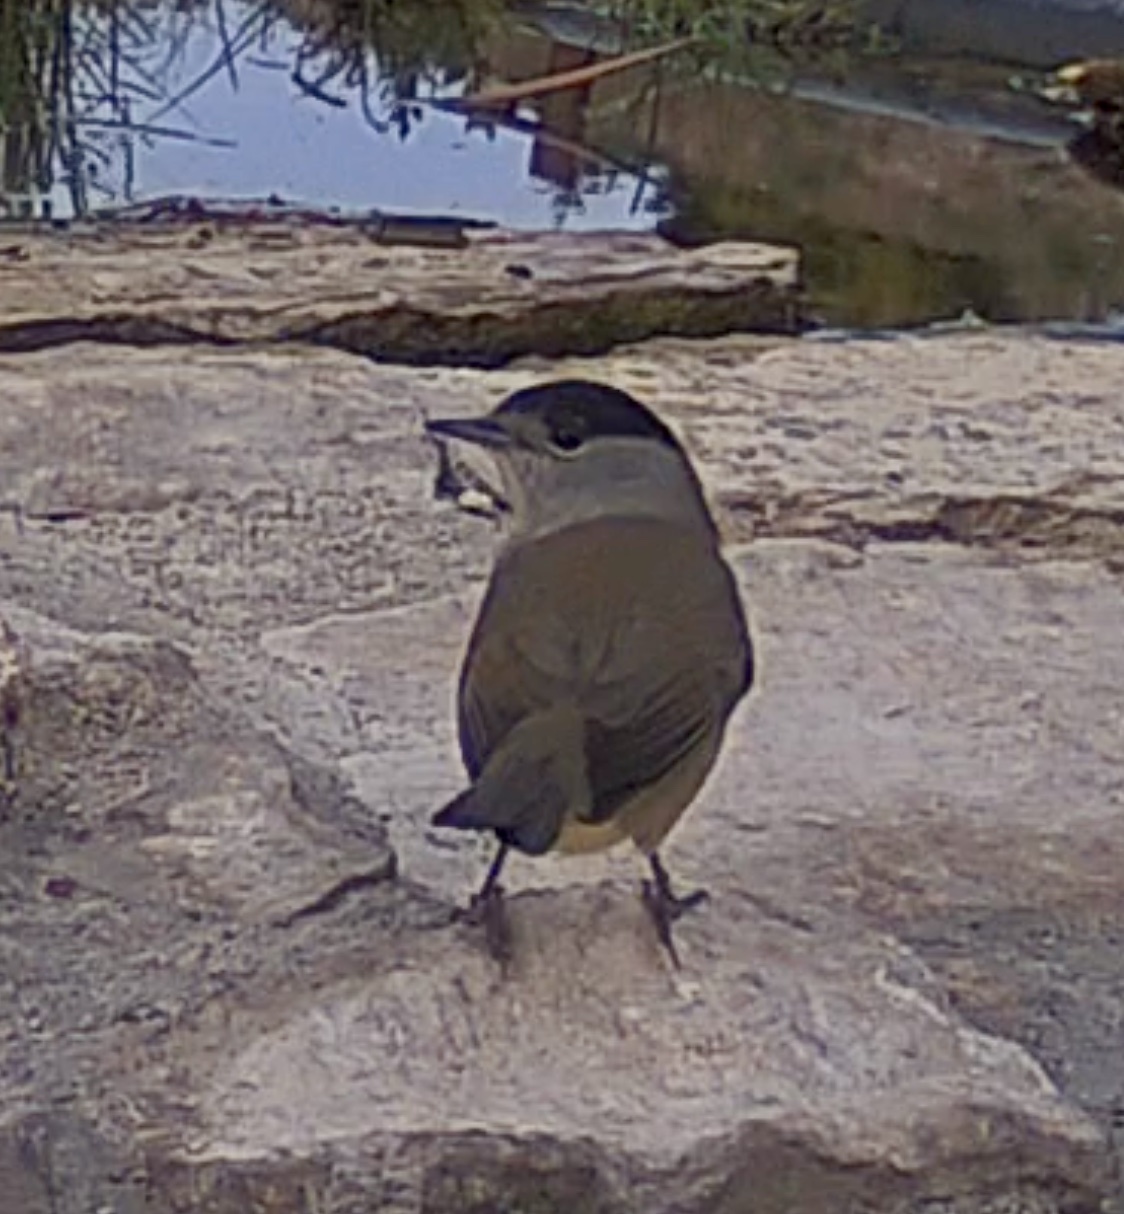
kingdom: Animalia
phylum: Chordata
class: Aves
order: Passeriformes
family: Sylviidae
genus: Sylvia
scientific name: Sylvia atricapilla
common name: Eurasian blackcap
